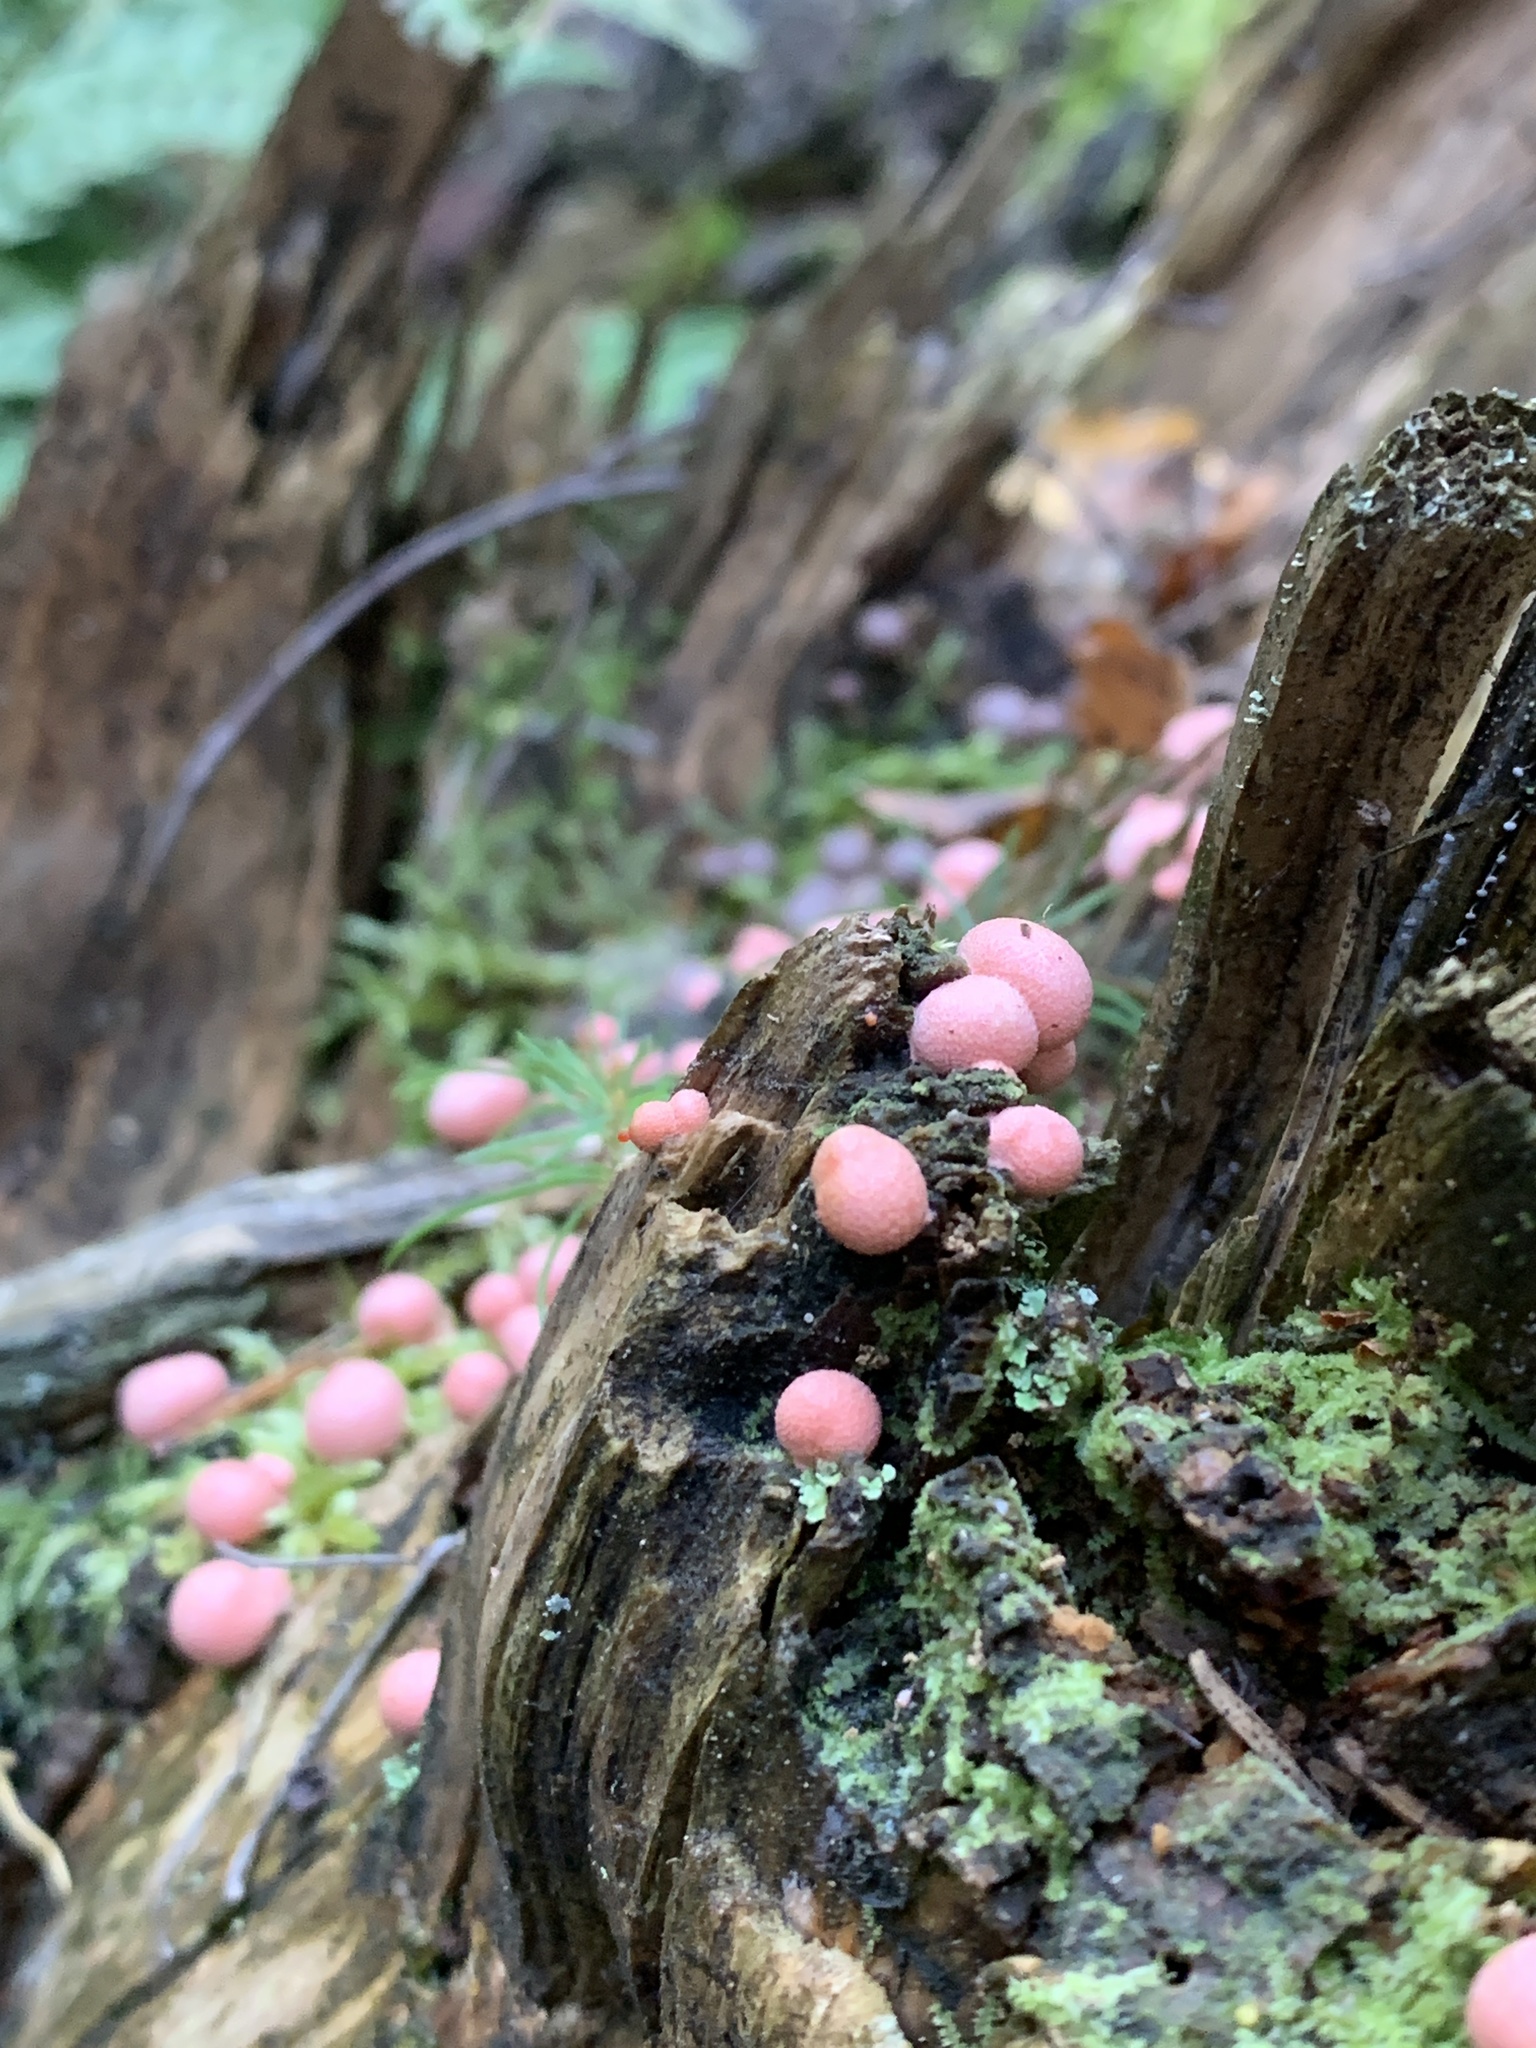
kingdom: Protozoa
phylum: Mycetozoa
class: Myxomycetes
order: Cribrariales
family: Tubiferaceae
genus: Lycogala
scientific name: Lycogala epidendrum
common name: Wolf's milk
